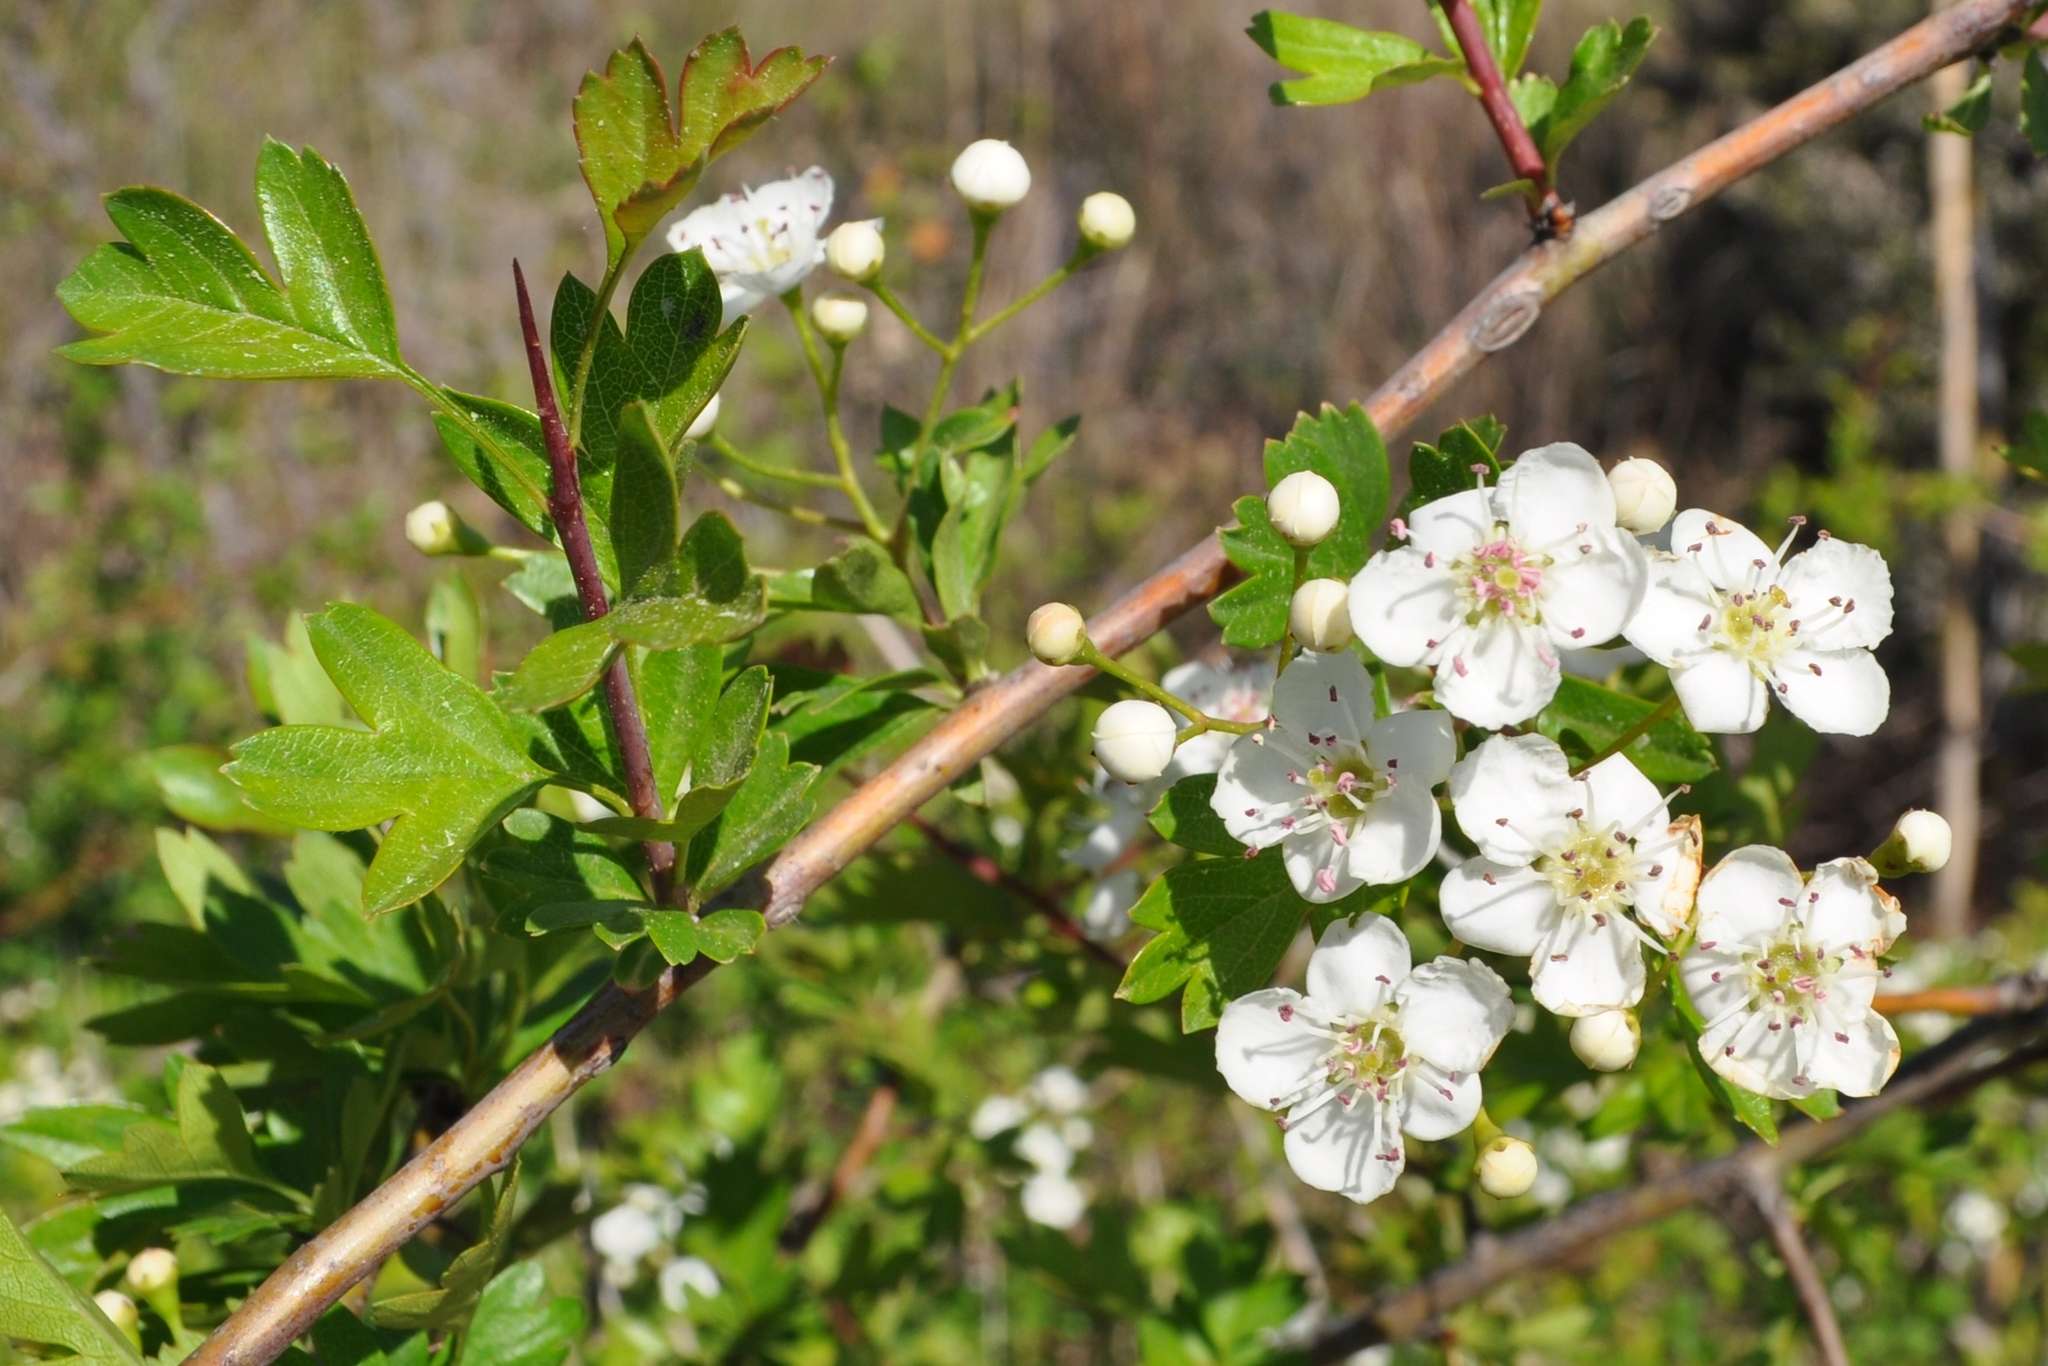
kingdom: Plantae
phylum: Tracheophyta
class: Magnoliopsida
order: Rosales
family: Rosaceae
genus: Crataegus
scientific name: Crataegus monogyna
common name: Hawthorn
